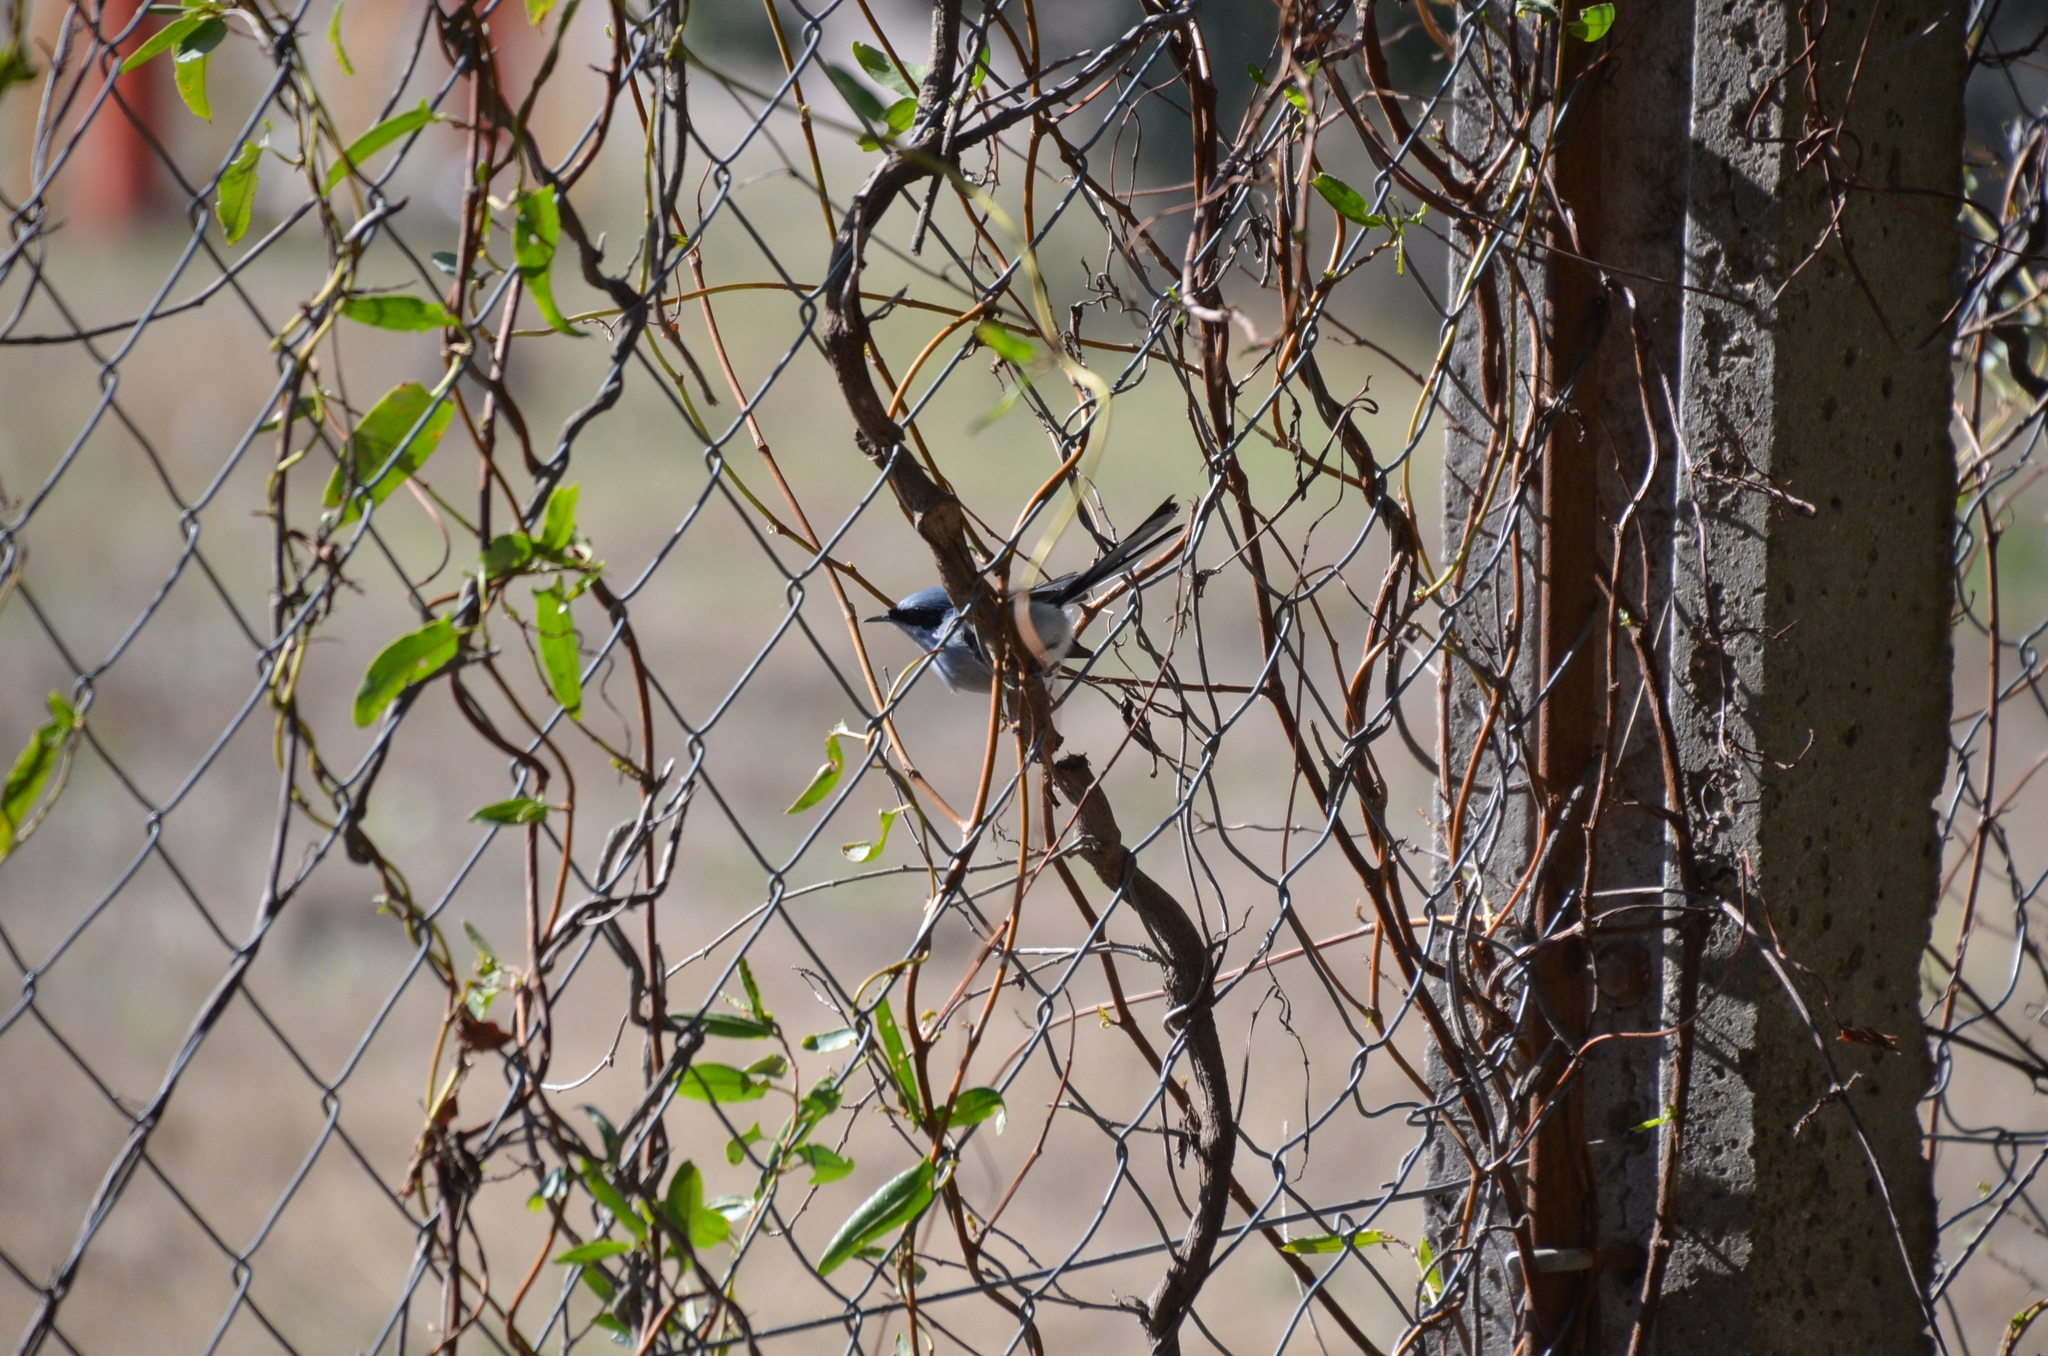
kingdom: Animalia
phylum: Chordata
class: Aves
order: Passeriformes
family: Polioptilidae
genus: Polioptila
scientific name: Polioptila dumicola
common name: Masked gnatcatcher
